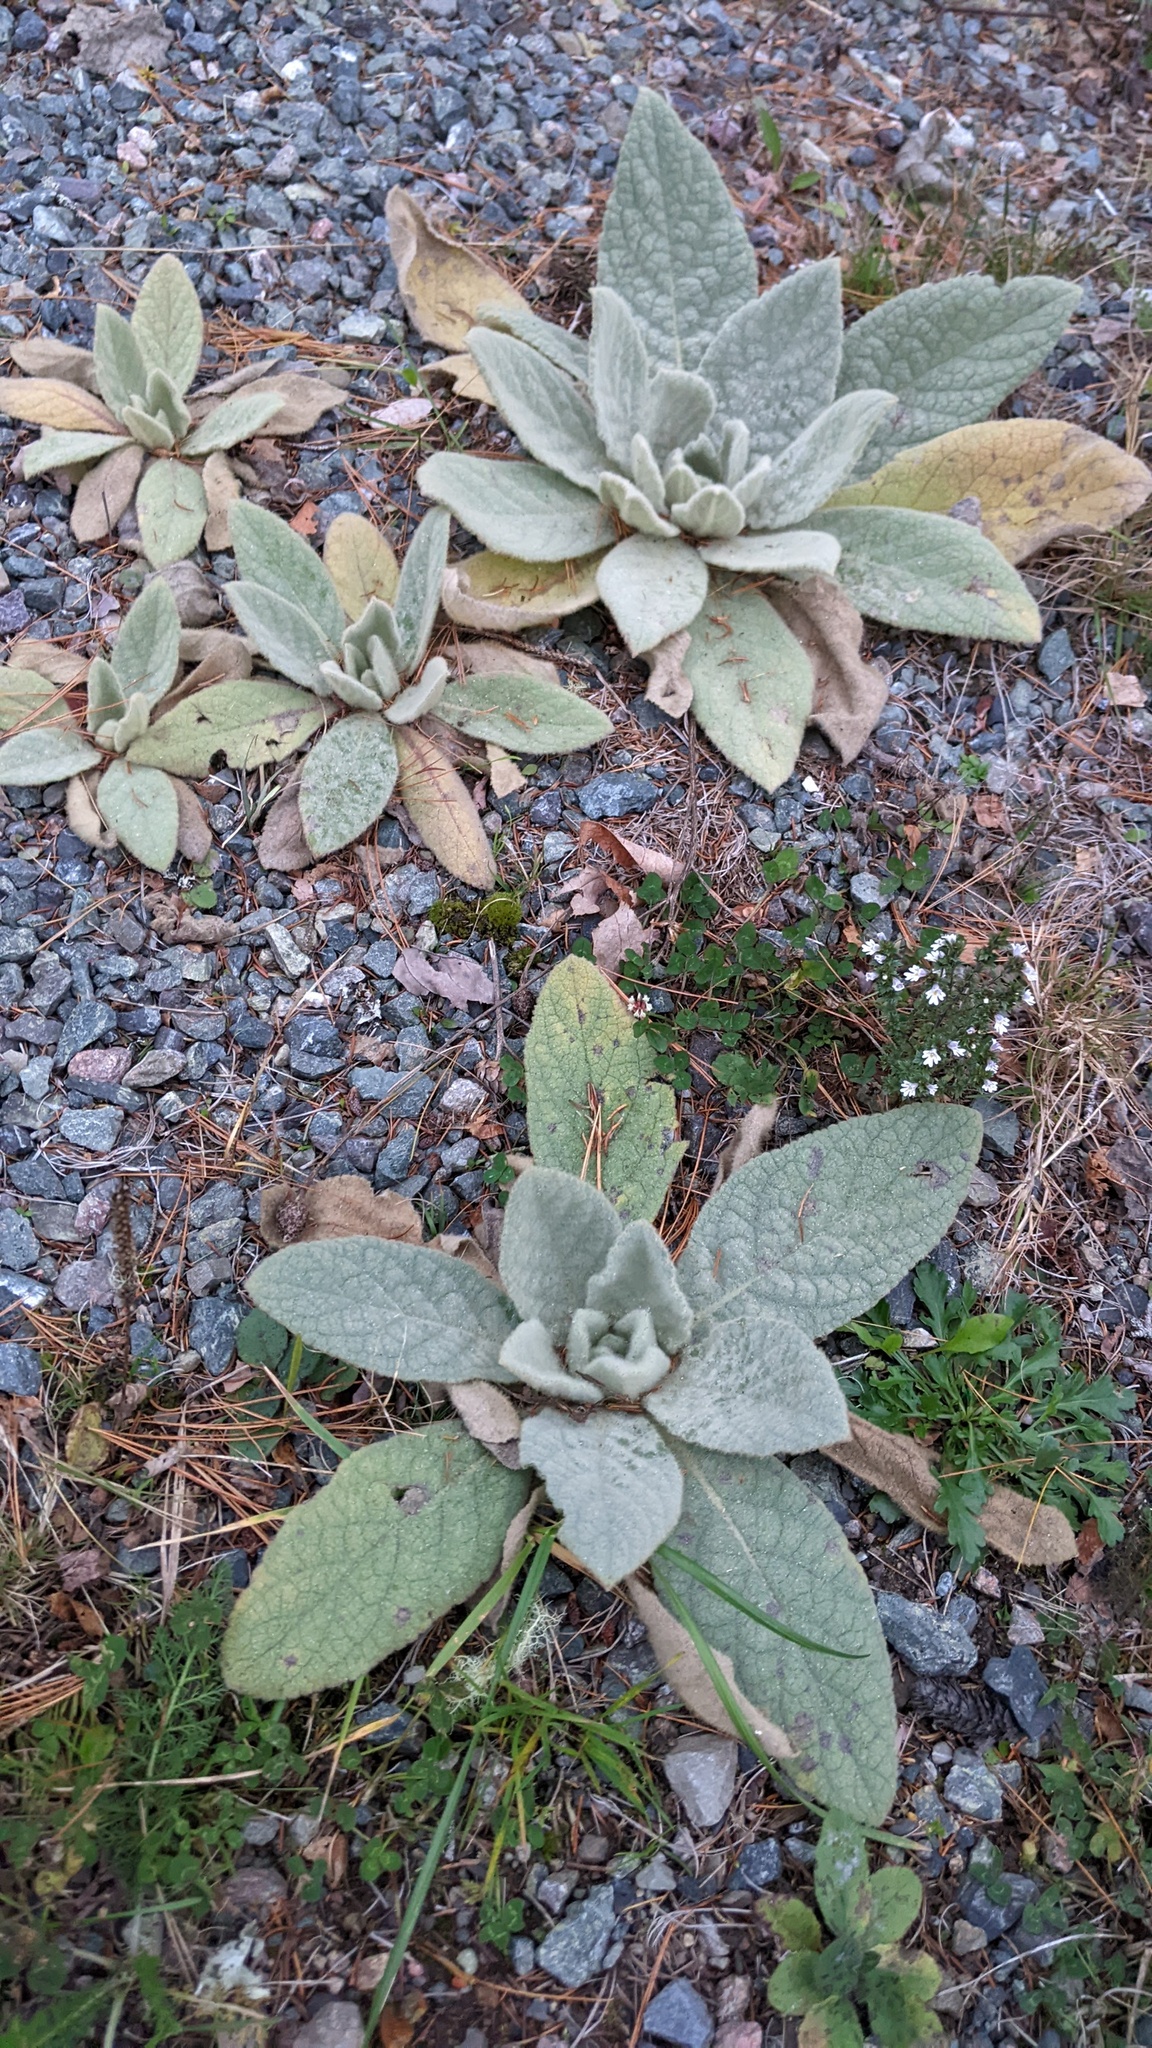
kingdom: Plantae
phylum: Tracheophyta
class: Magnoliopsida
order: Lamiales
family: Scrophulariaceae
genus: Verbascum
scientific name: Verbascum thapsus
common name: Common mullein
